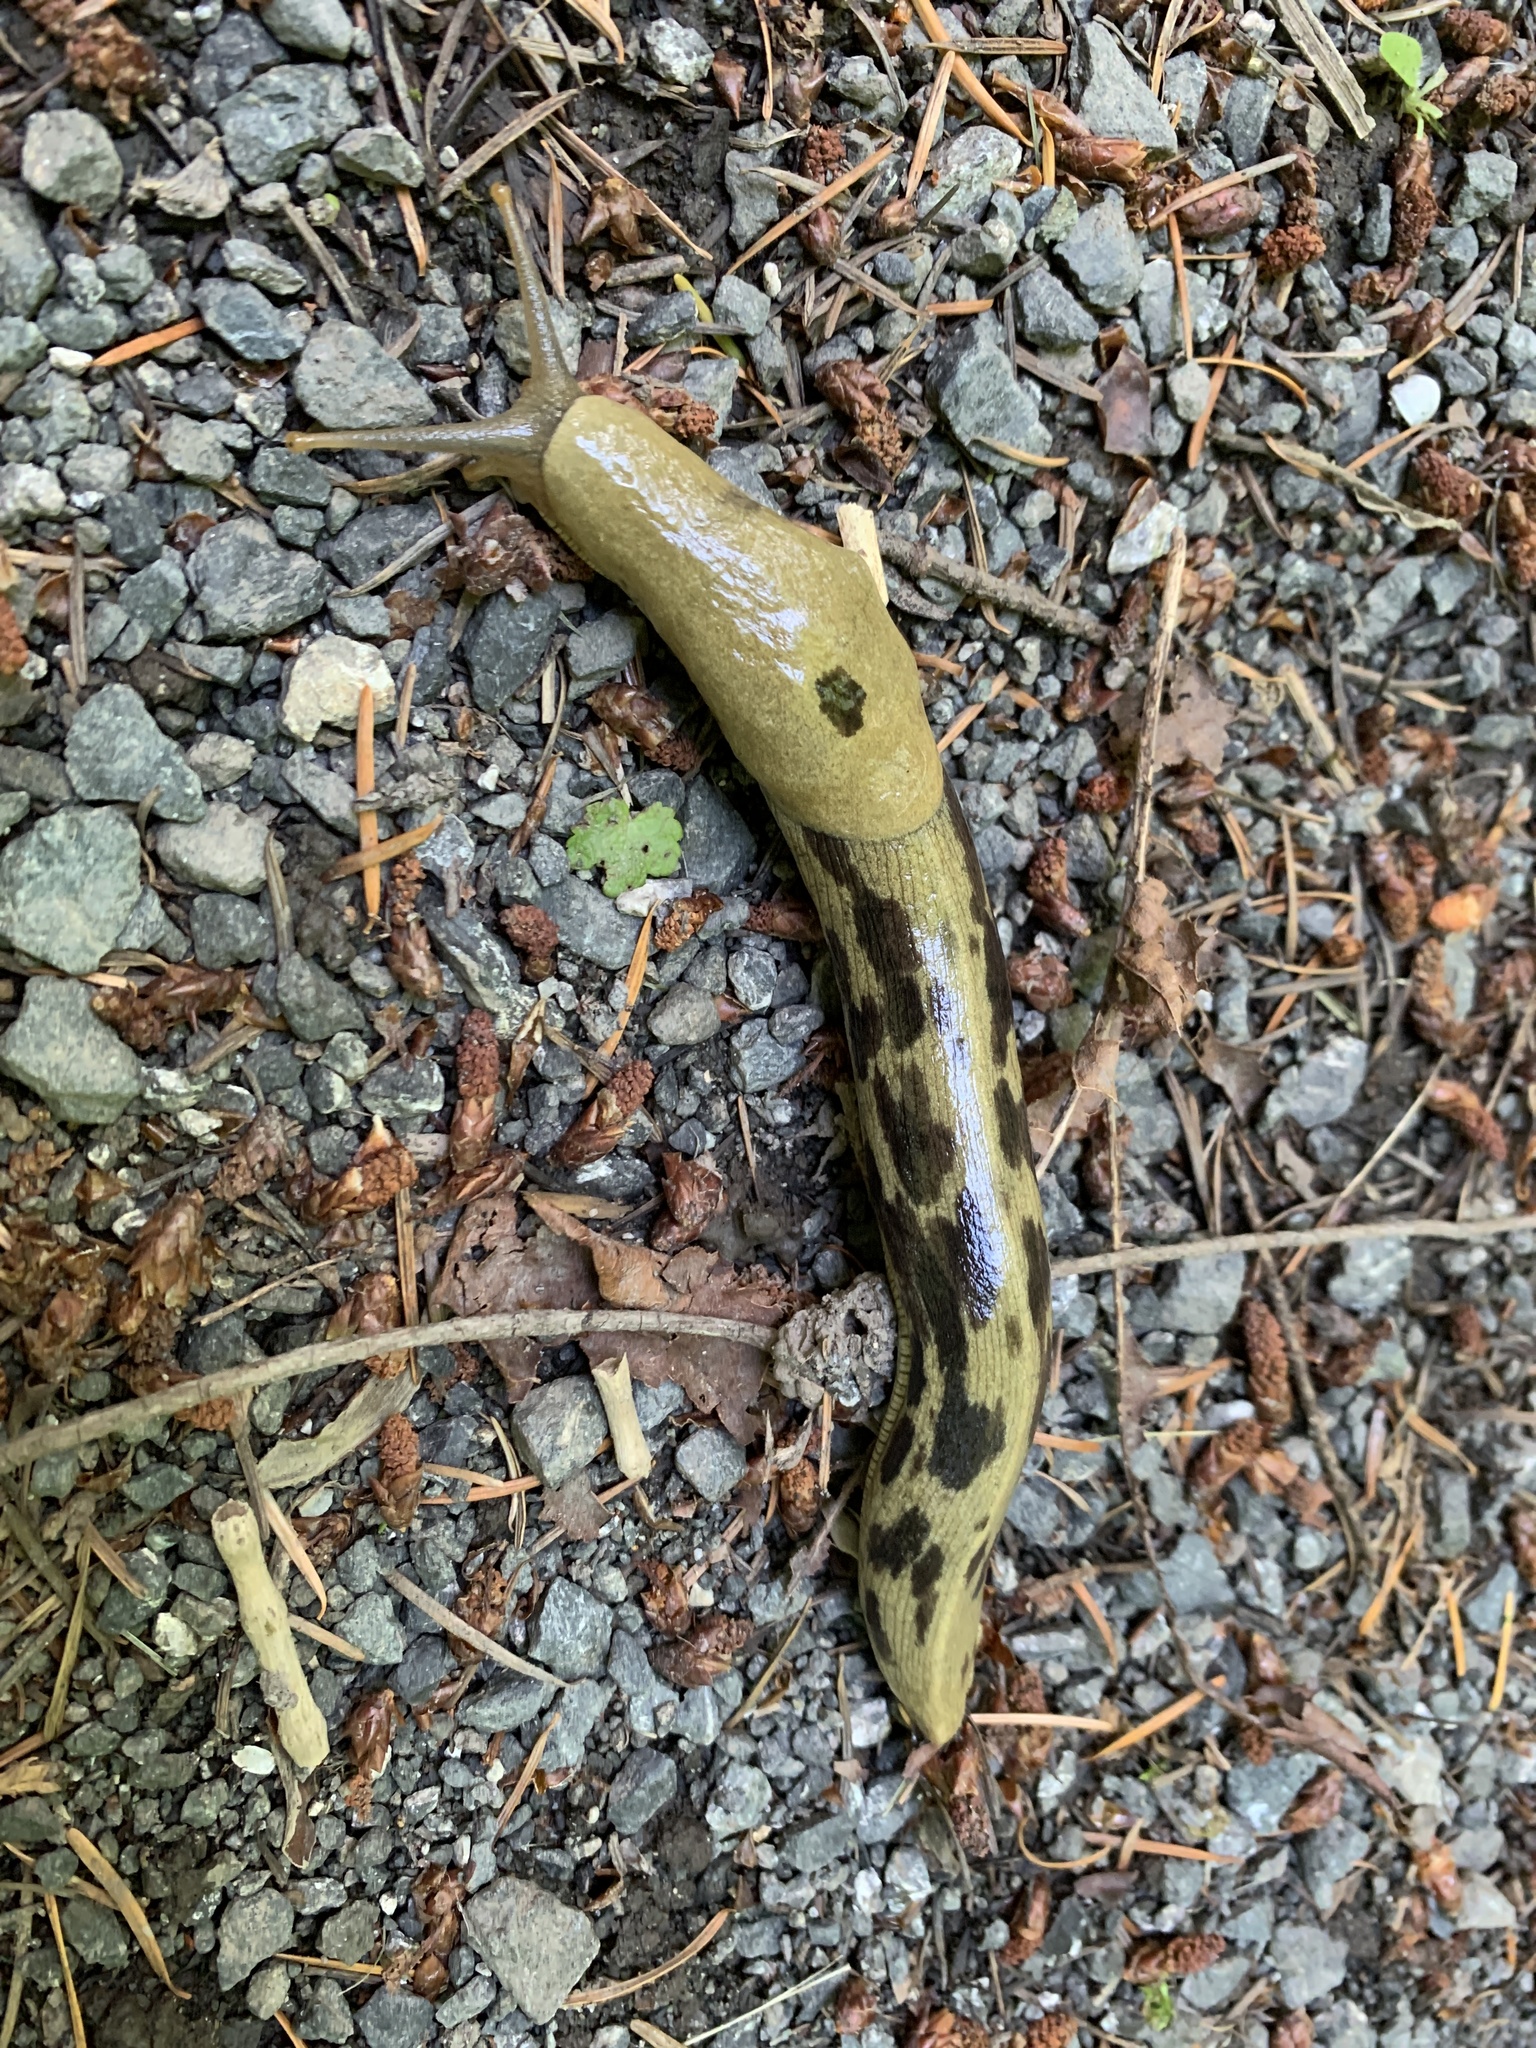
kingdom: Animalia
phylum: Mollusca
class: Gastropoda
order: Stylommatophora
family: Ariolimacidae
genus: Ariolimax
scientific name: Ariolimax columbianus
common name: Pacific banana slug
